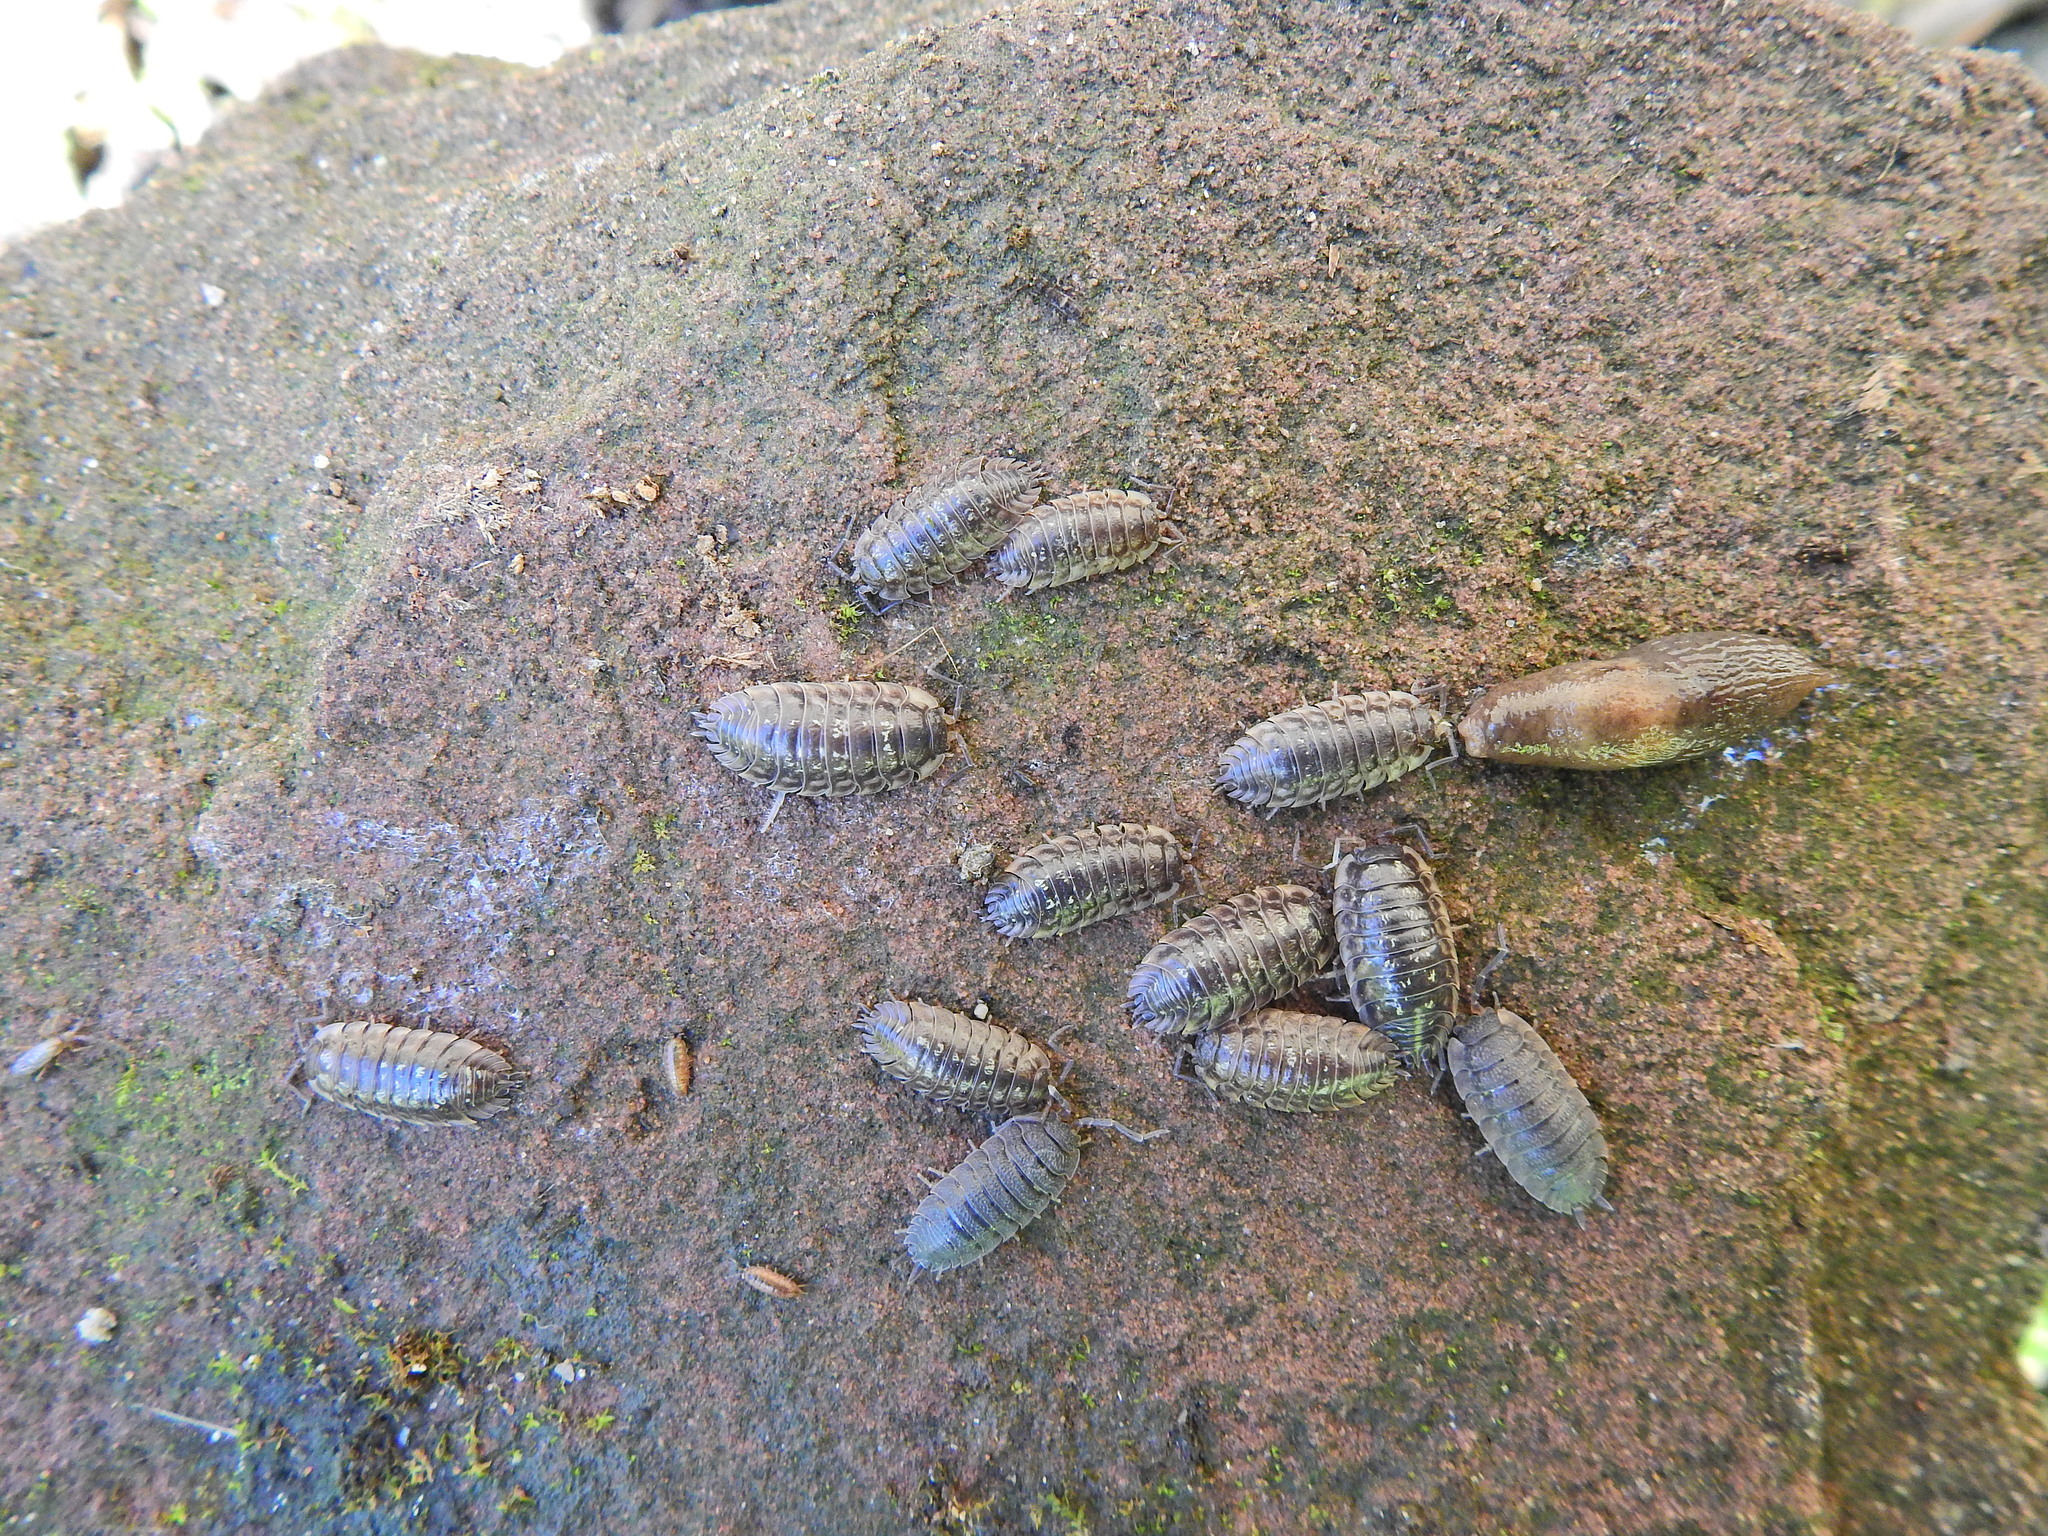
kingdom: Animalia
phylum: Arthropoda
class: Malacostraca
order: Isopoda
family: Porcellionidae
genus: Porcellio
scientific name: Porcellio scaber
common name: Common rough woodlouse
